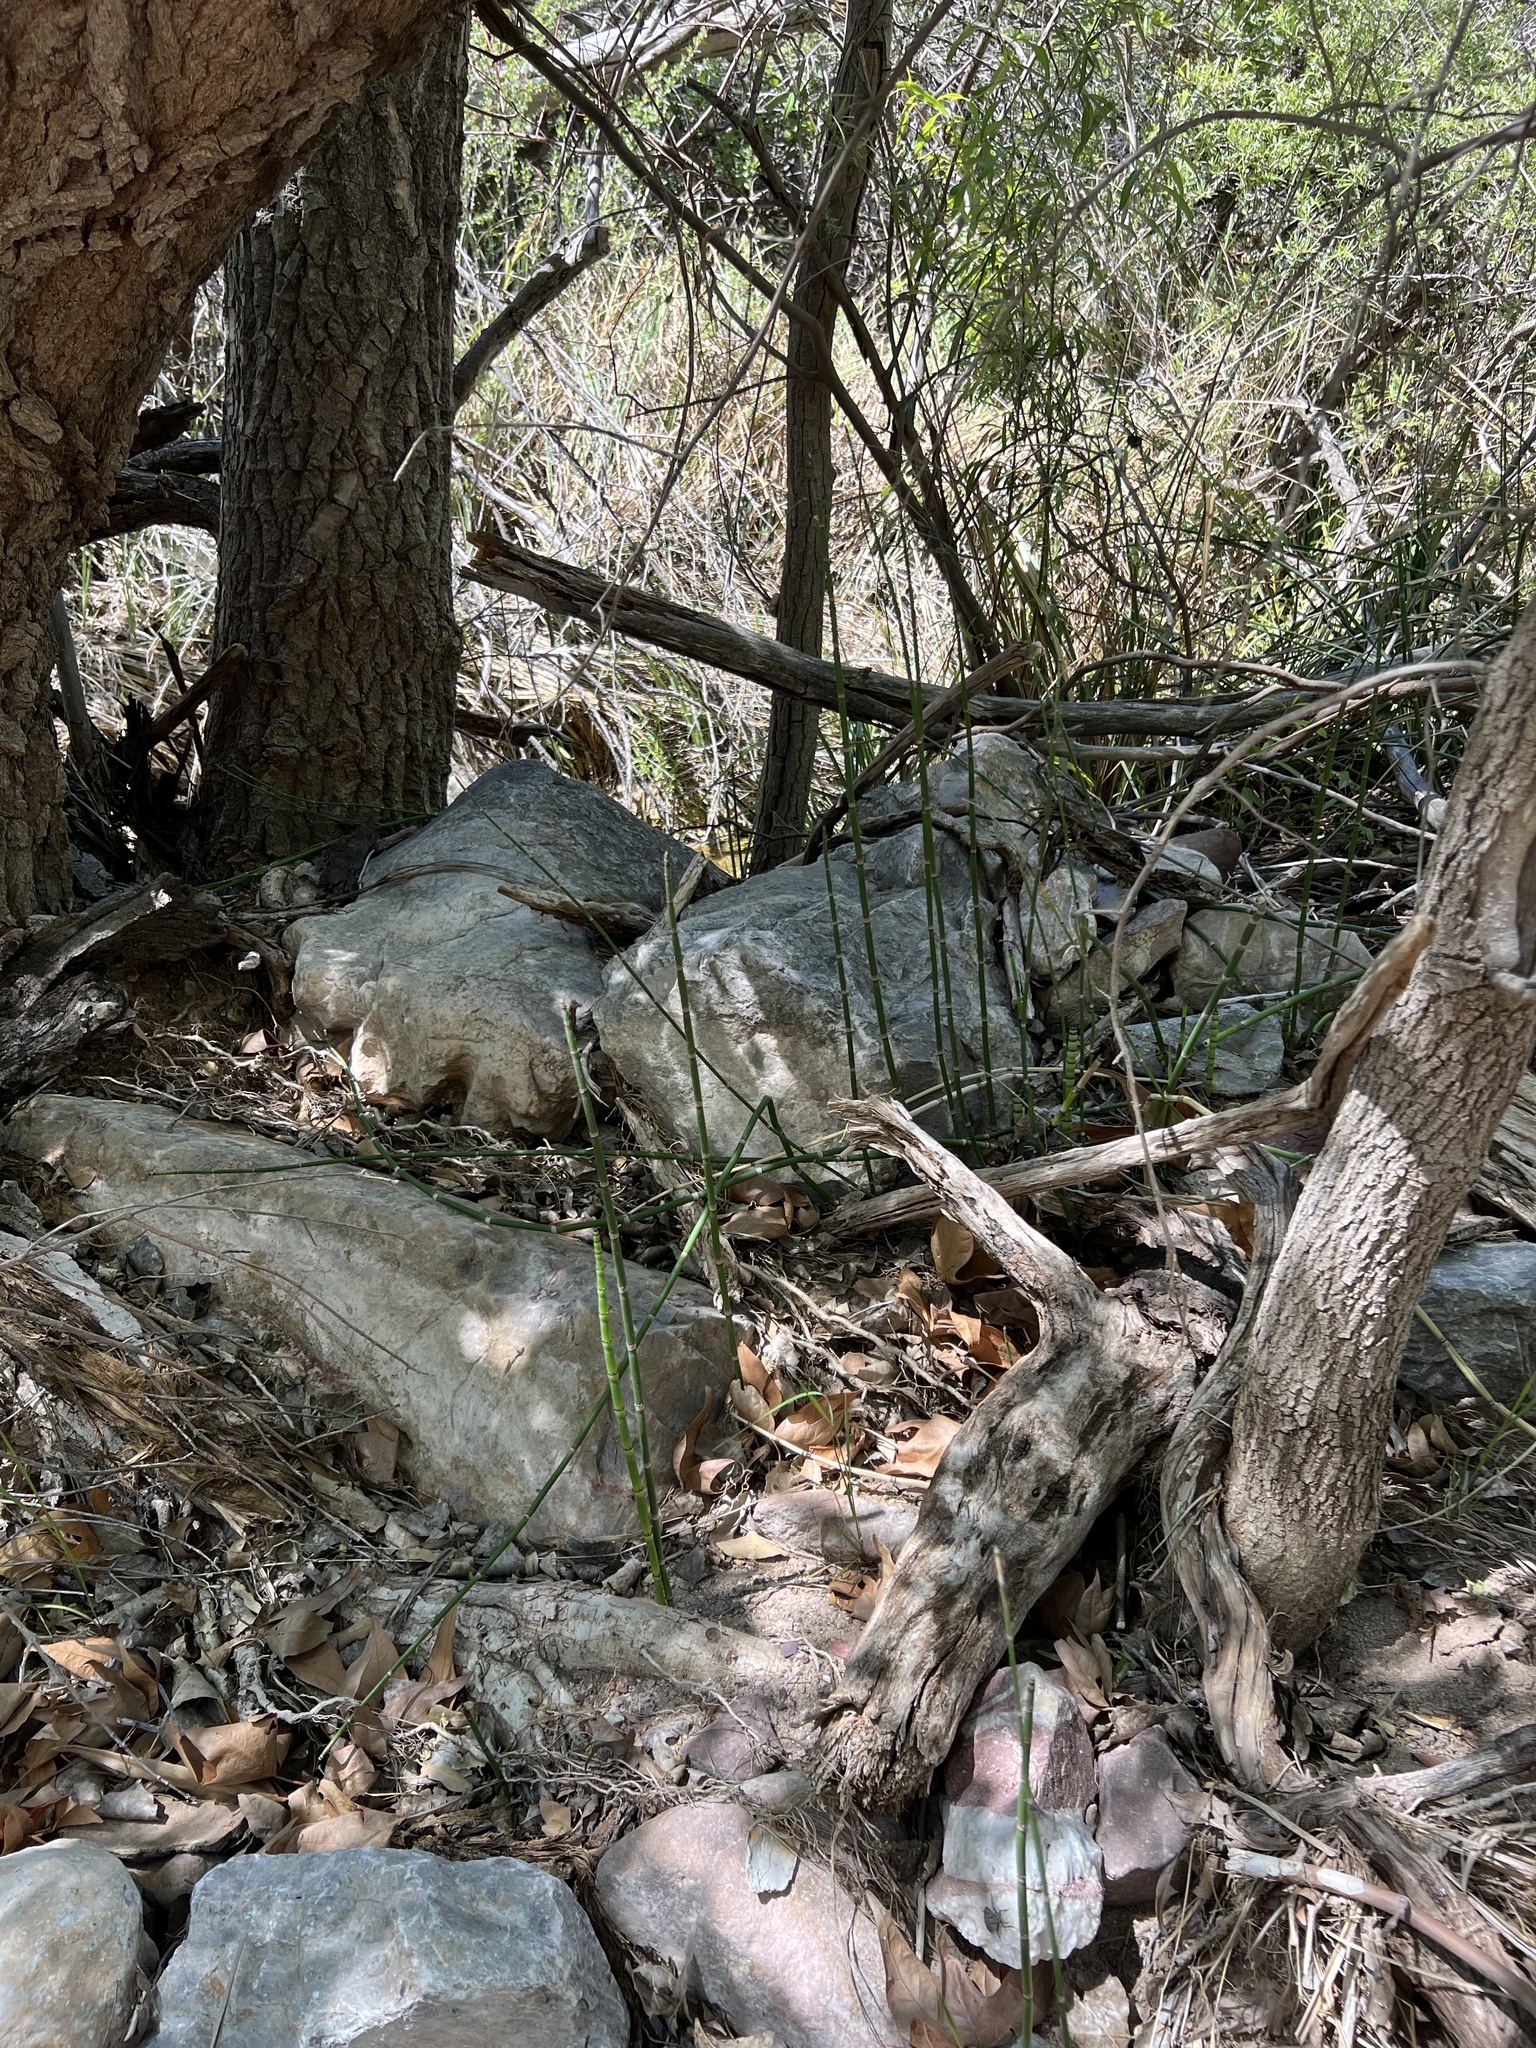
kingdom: Plantae
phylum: Tracheophyta
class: Polypodiopsida
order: Equisetales
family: Equisetaceae
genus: Equisetum
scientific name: Equisetum hyemale
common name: Rough horsetail
